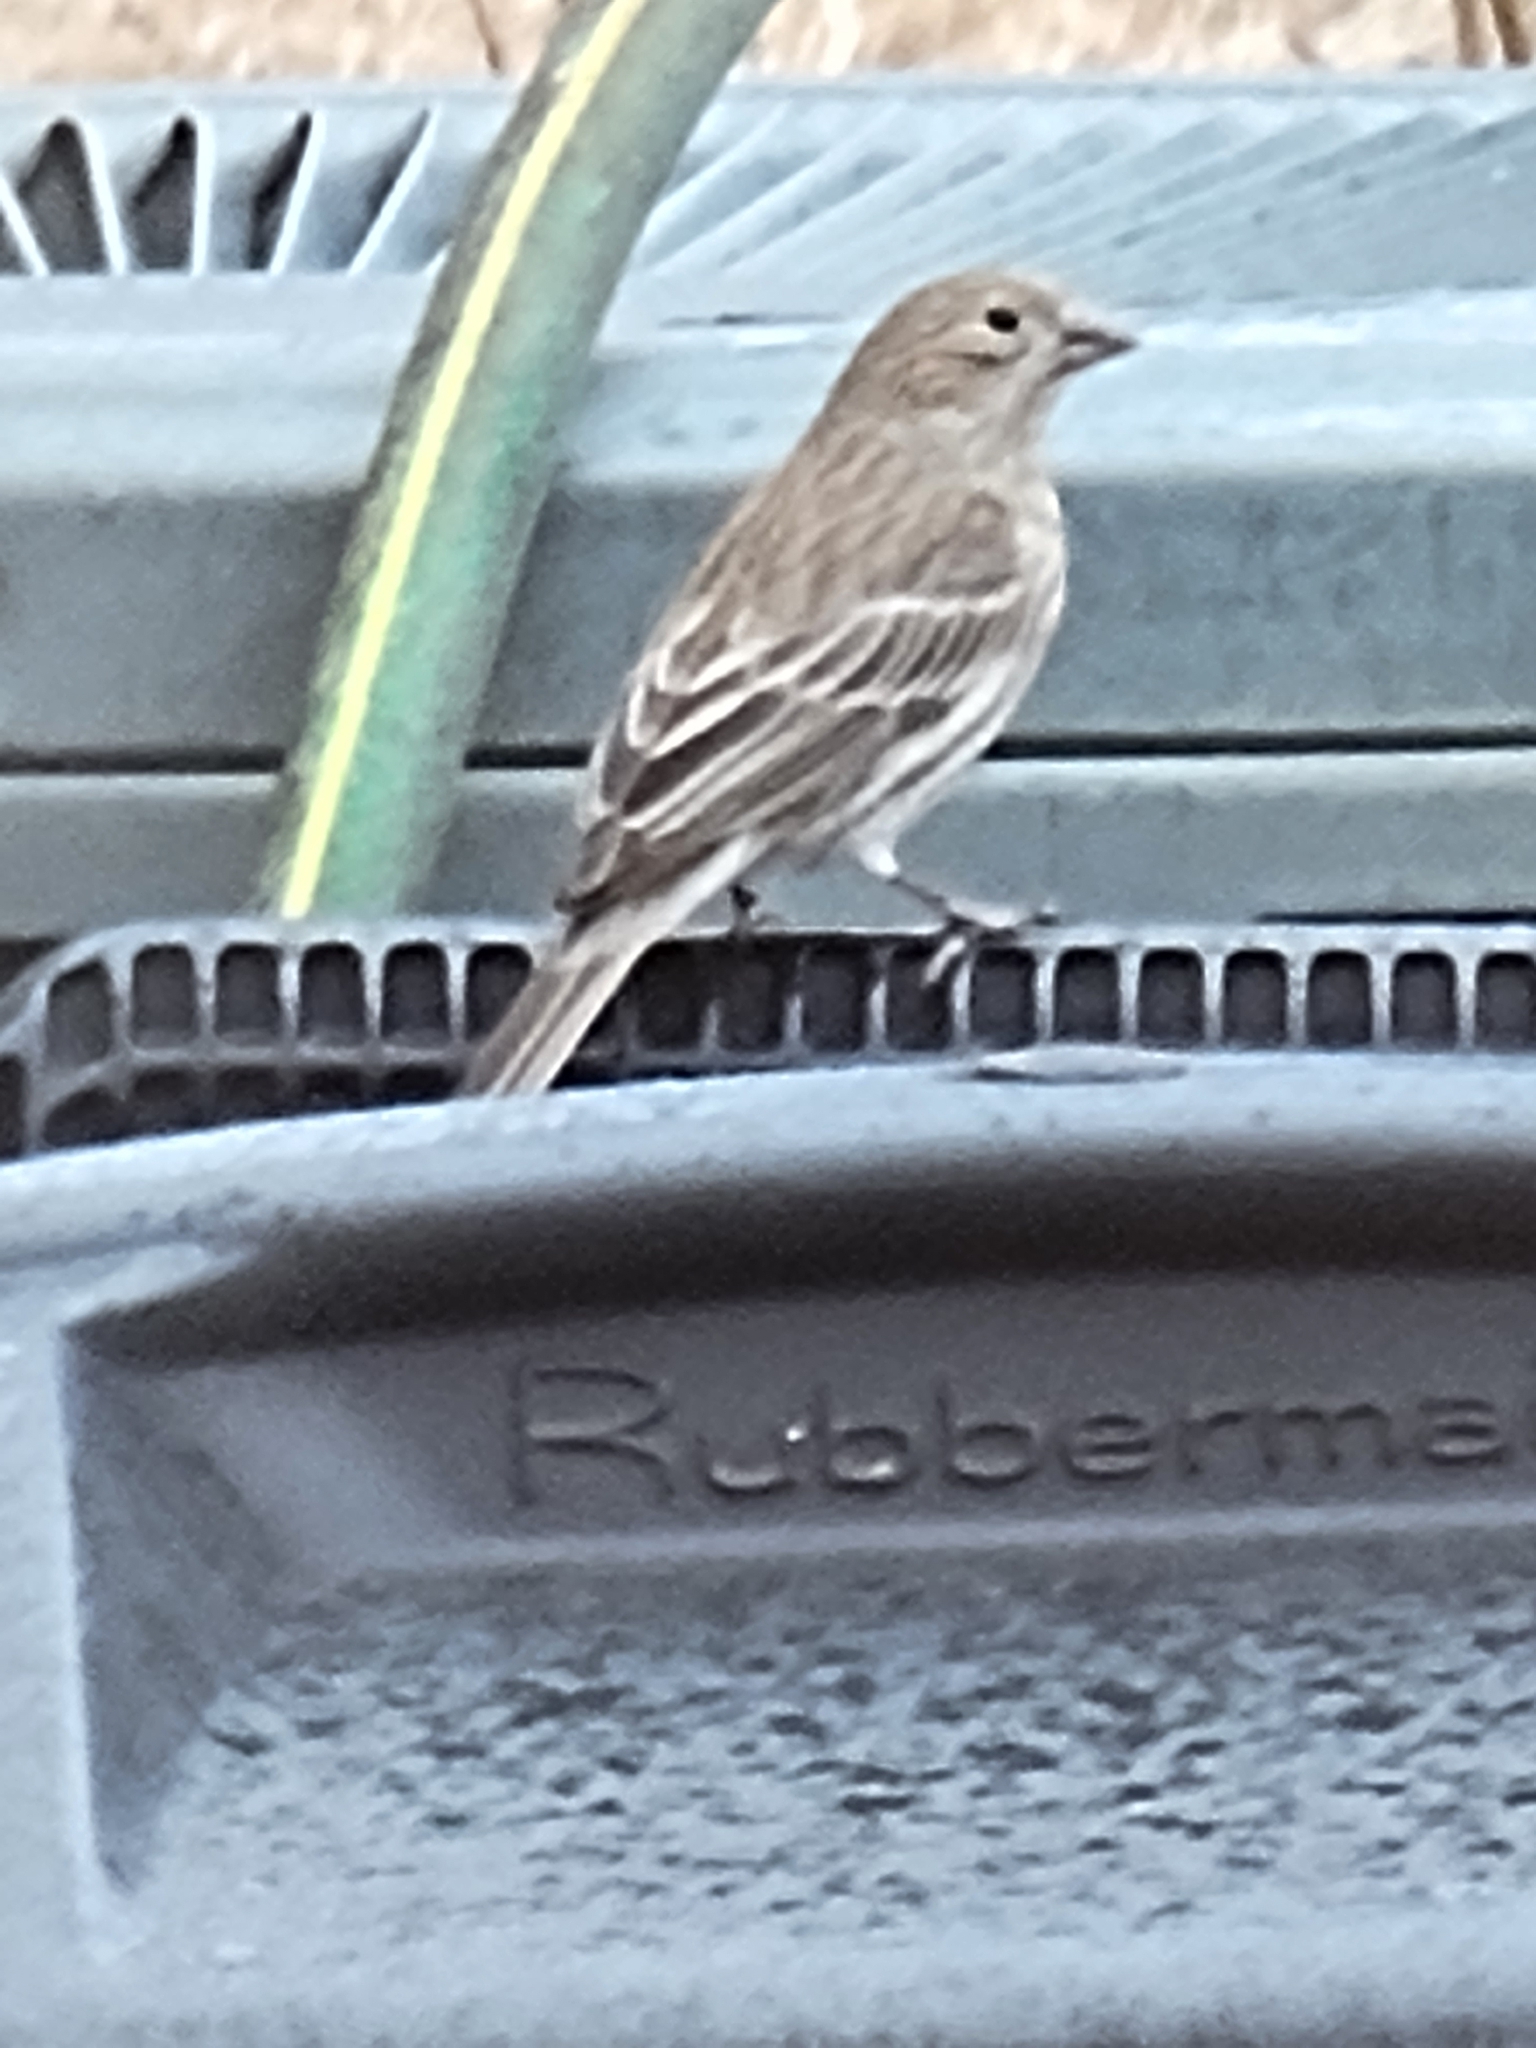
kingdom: Animalia
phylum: Chordata
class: Aves
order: Passeriformes
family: Fringillidae
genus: Haemorhous
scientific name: Haemorhous mexicanus
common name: House finch
